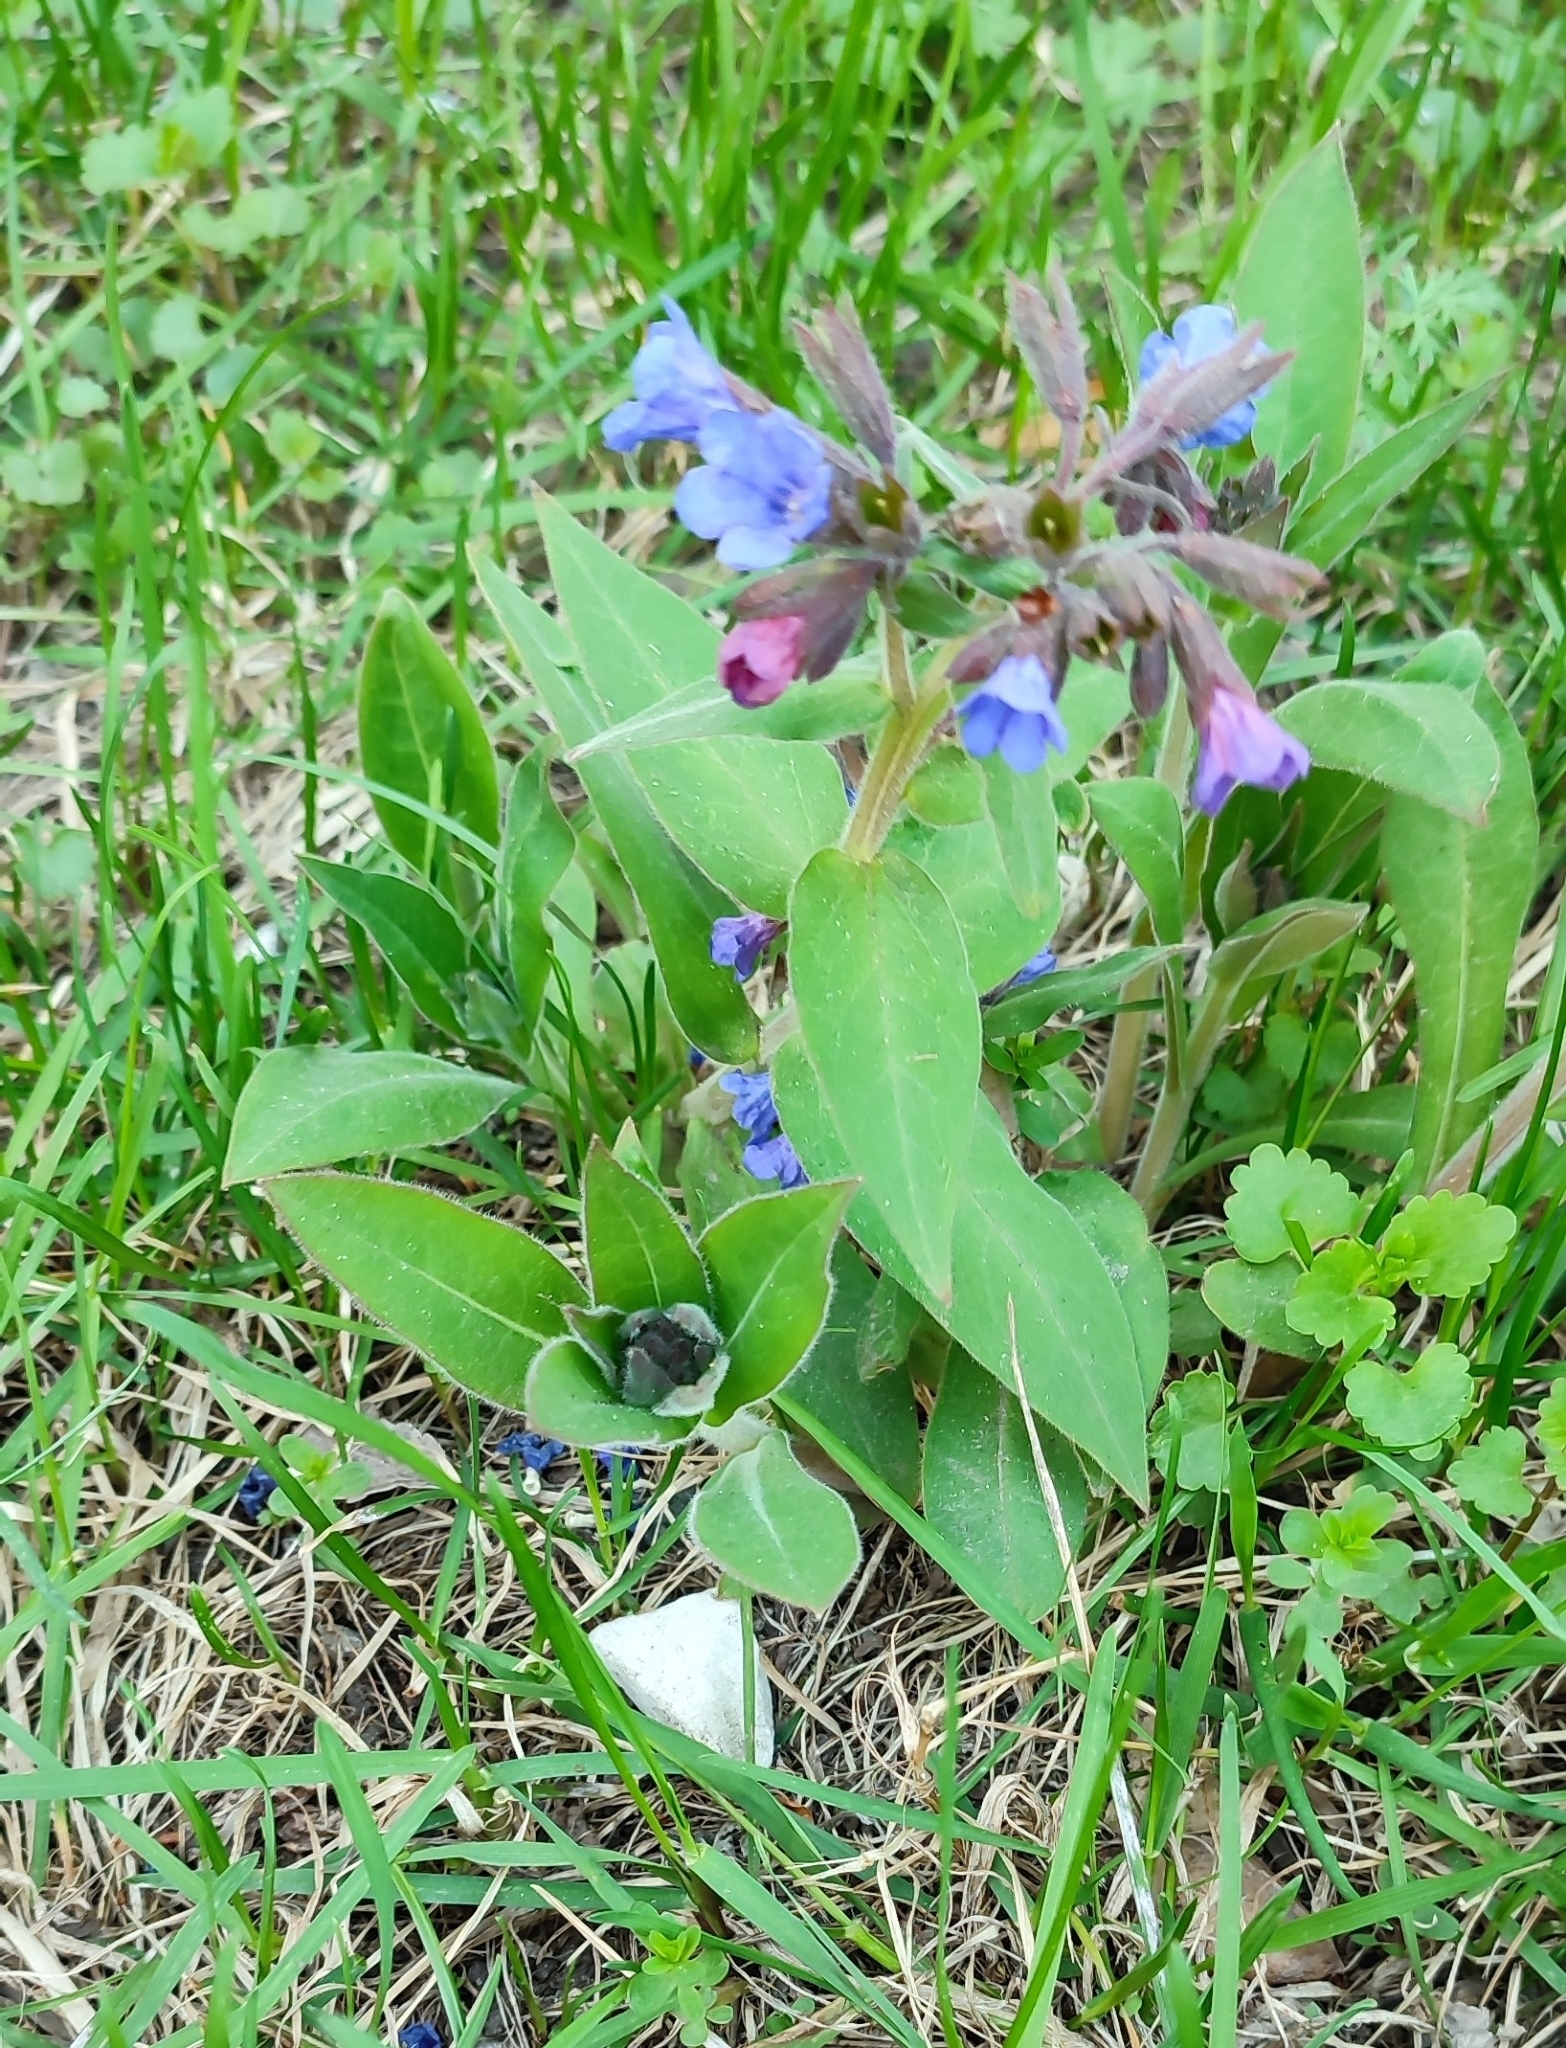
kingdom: Plantae
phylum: Tracheophyta
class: Magnoliopsida
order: Boraginales
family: Boraginaceae
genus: Pulmonaria
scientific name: Pulmonaria mollis
